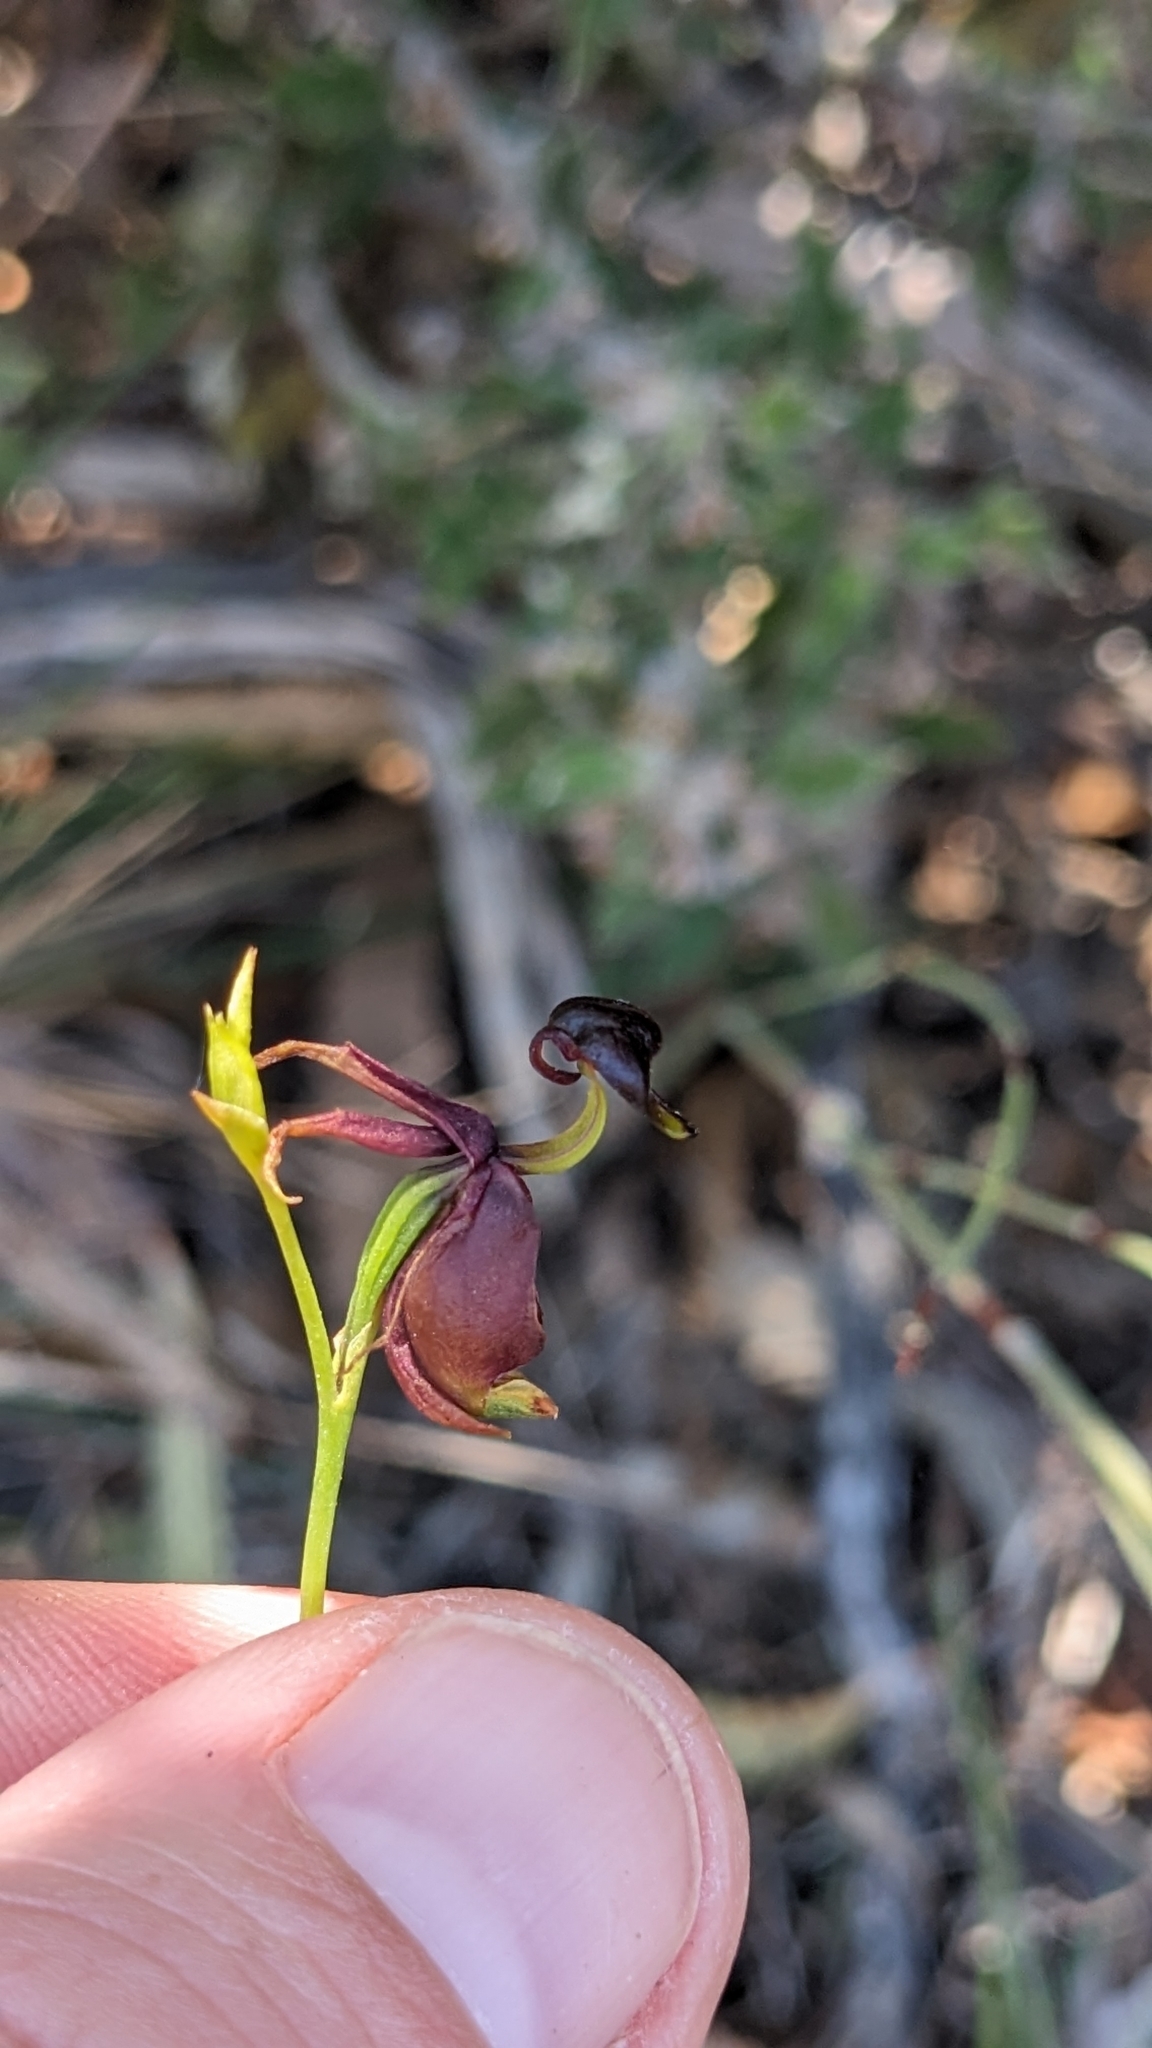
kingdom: Plantae
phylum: Tracheophyta
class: Liliopsida
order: Asparagales
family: Orchidaceae
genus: Caleana
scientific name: Caleana major
